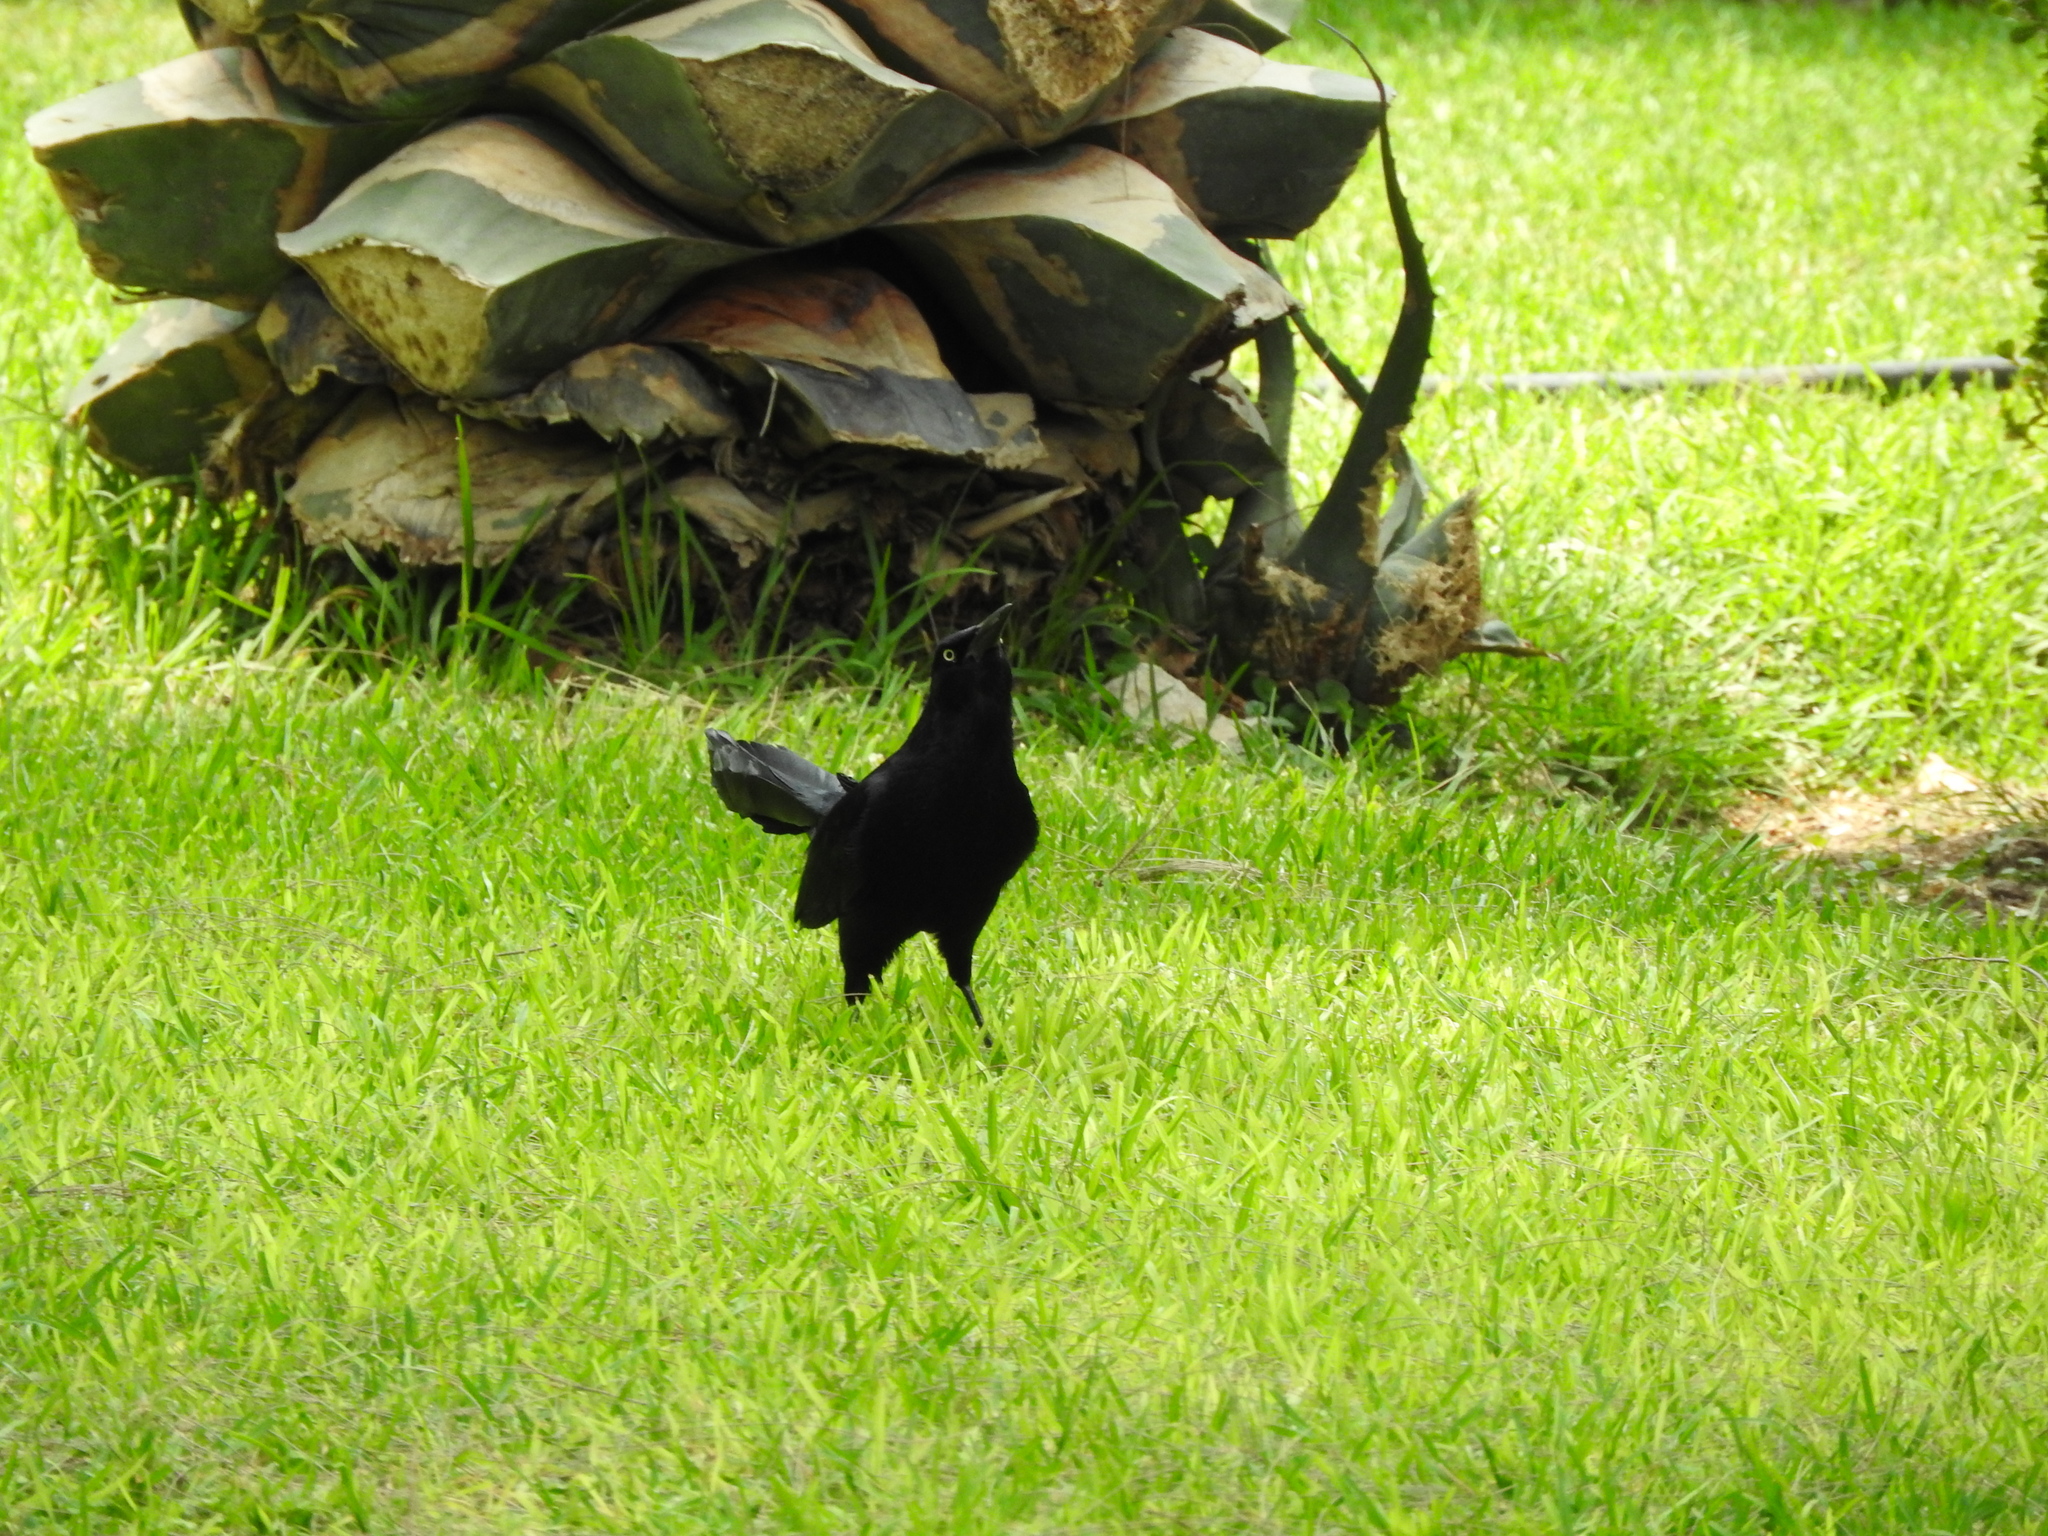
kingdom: Animalia
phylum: Chordata
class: Aves
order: Passeriformes
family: Icteridae
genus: Quiscalus
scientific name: Quiscalus mexicanus
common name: Great-tailed grackle
